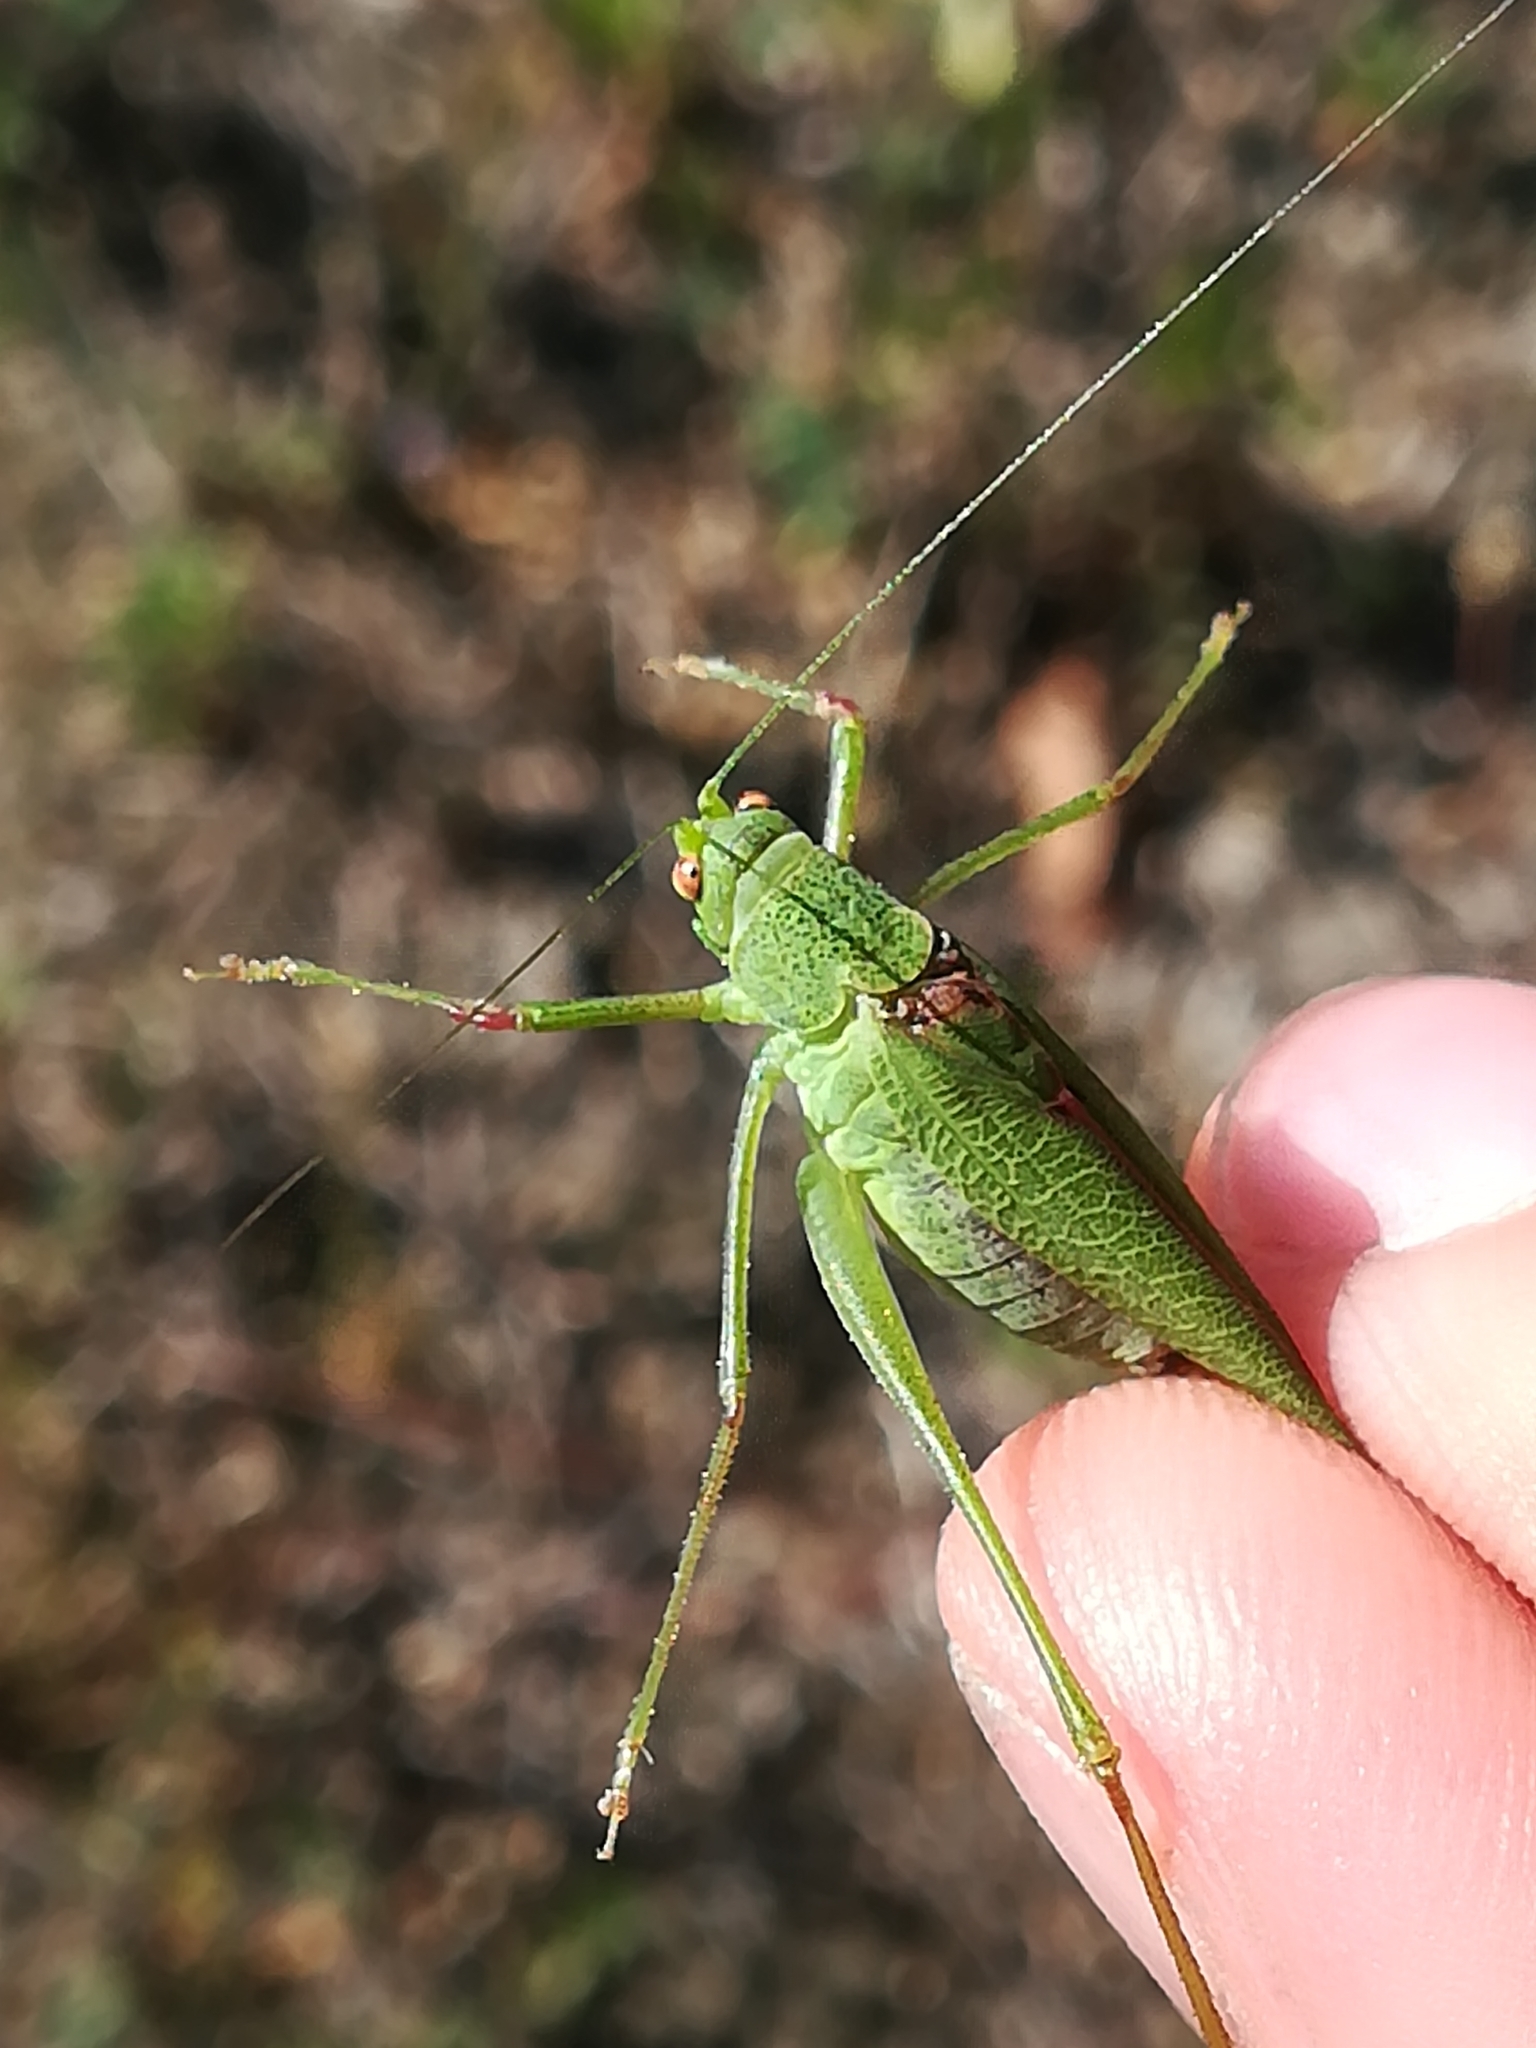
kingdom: Animalia
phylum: Arthropoda
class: Insecta
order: Orthoptera
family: Tettigoniidae
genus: Phaneroptera
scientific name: Phaneroptera nana
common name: Southern sickle bush-cricket
